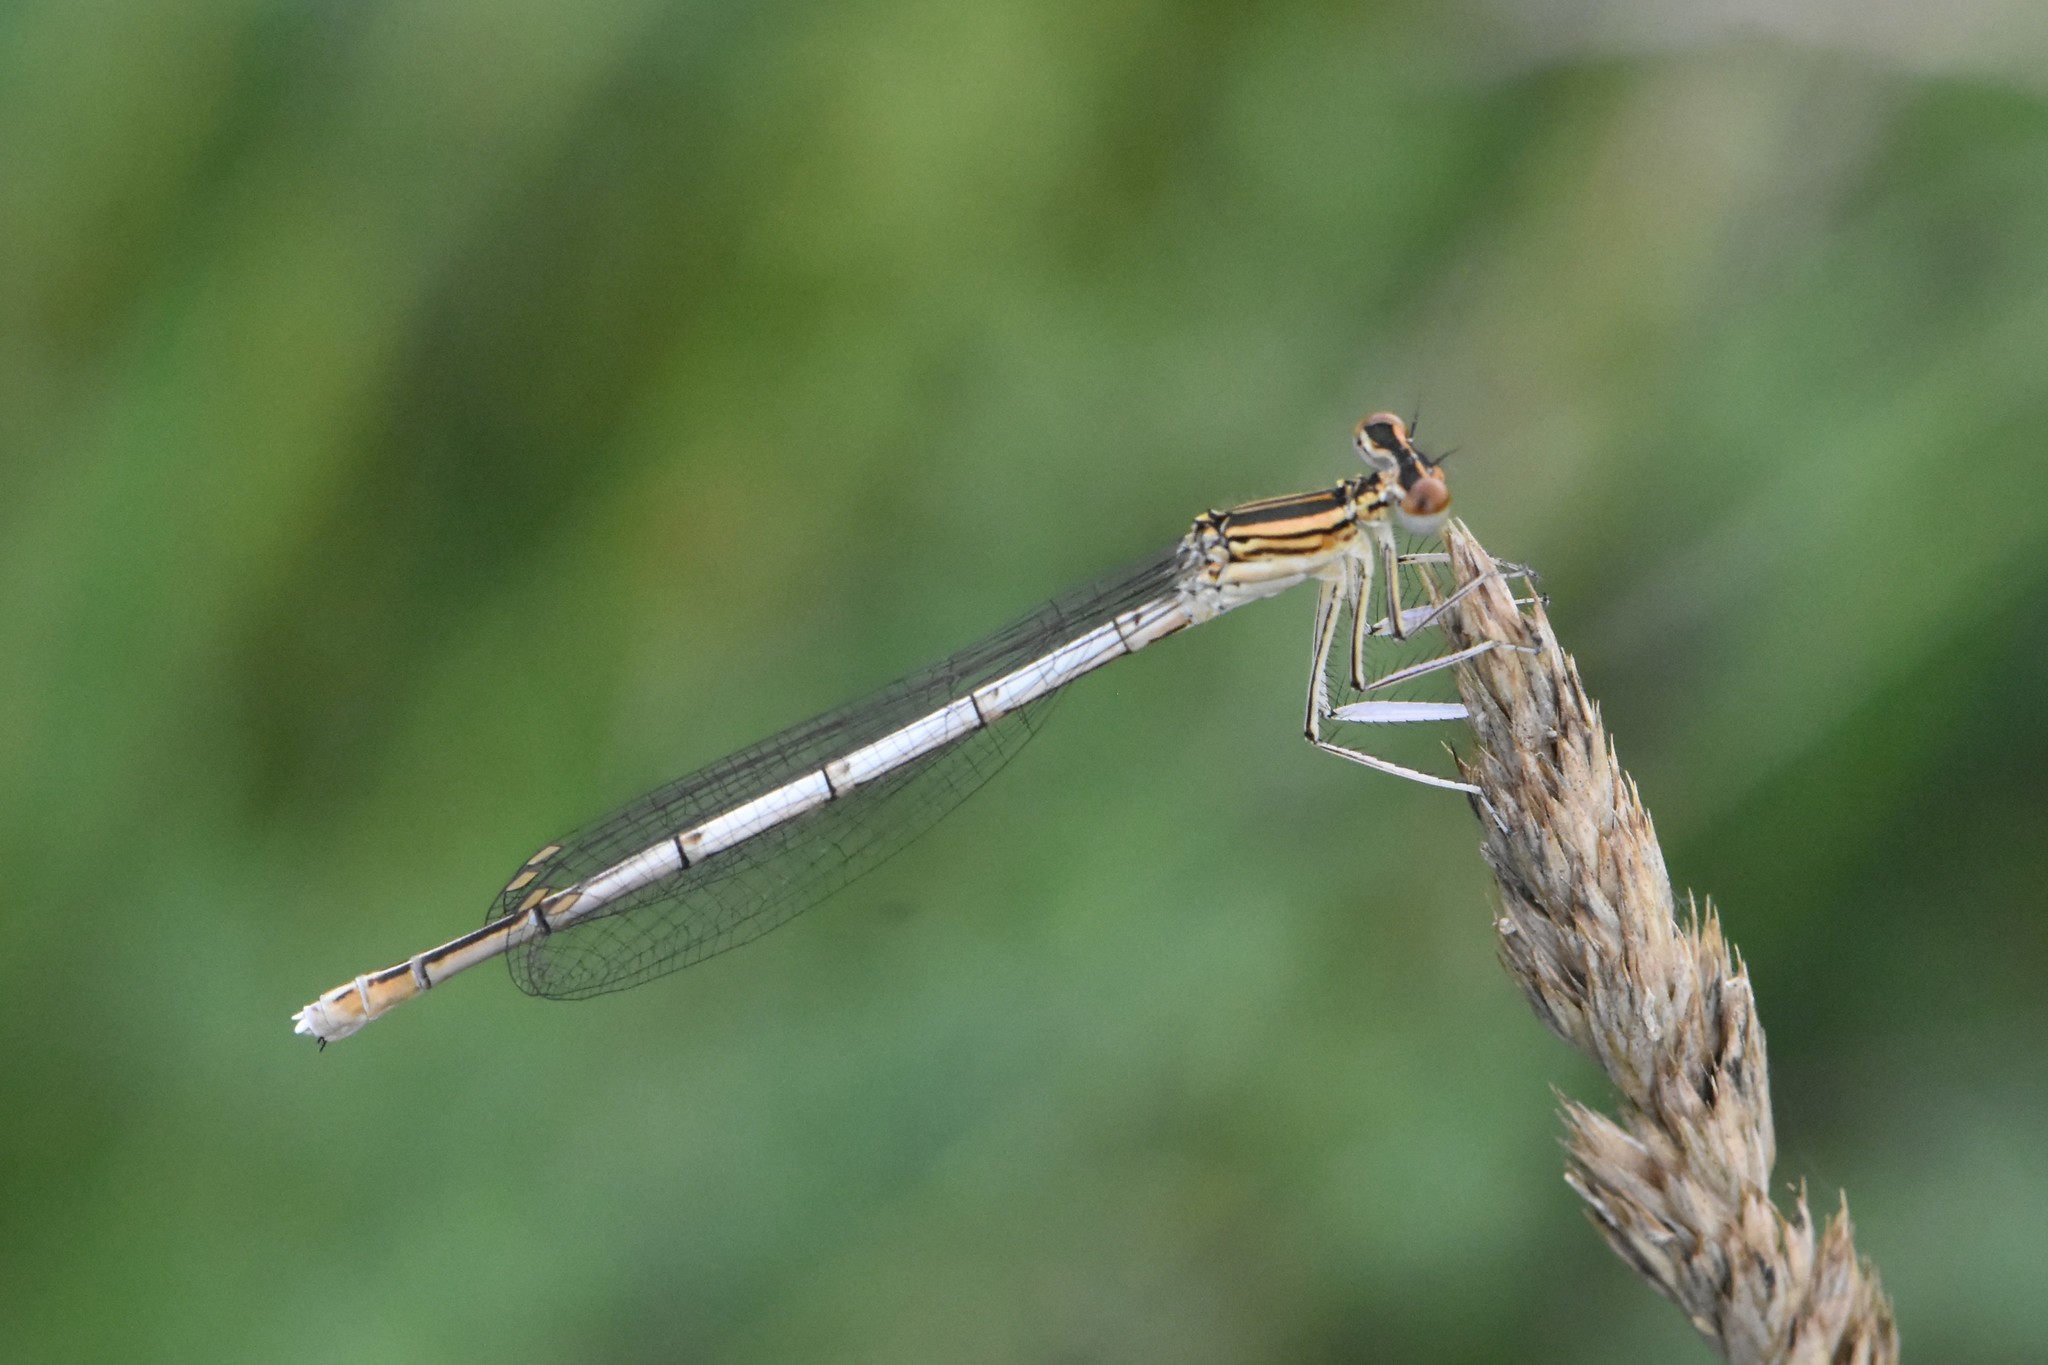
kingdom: Animalia
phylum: Arthropoda
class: Insecta
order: Odonata
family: Platycnemididae
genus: Platycnemis
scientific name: Platycnemis pennipes
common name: White-legged damselfly
